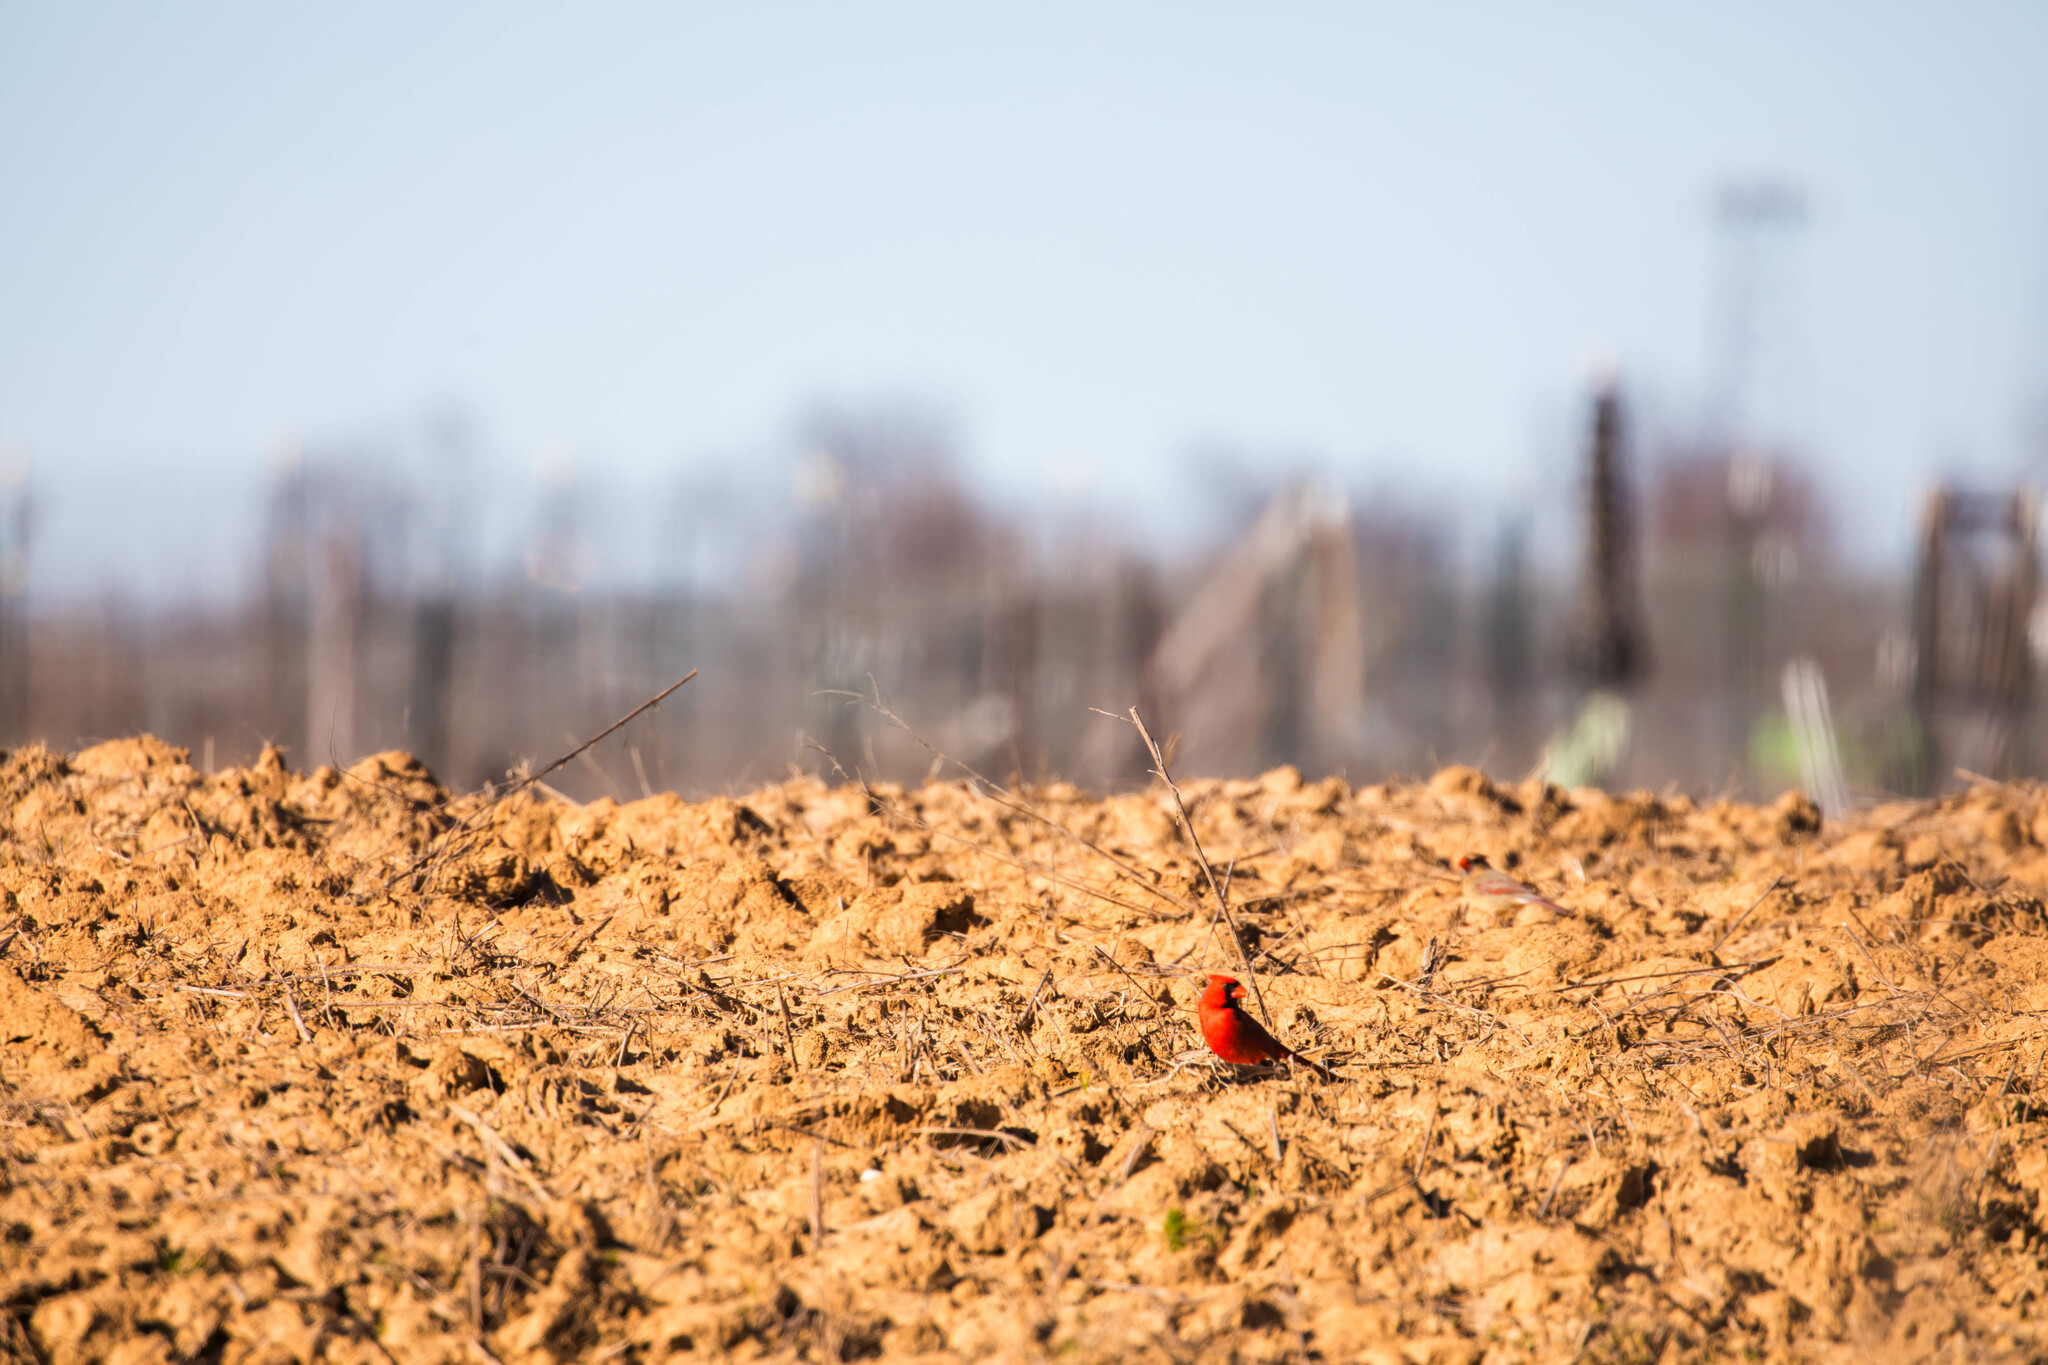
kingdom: Animalia
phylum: Chordata
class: Aves
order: Passeriformes
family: Cardinalidae
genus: Cardinalis
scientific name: Cardinalis cardinalis
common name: Northern cardinal
